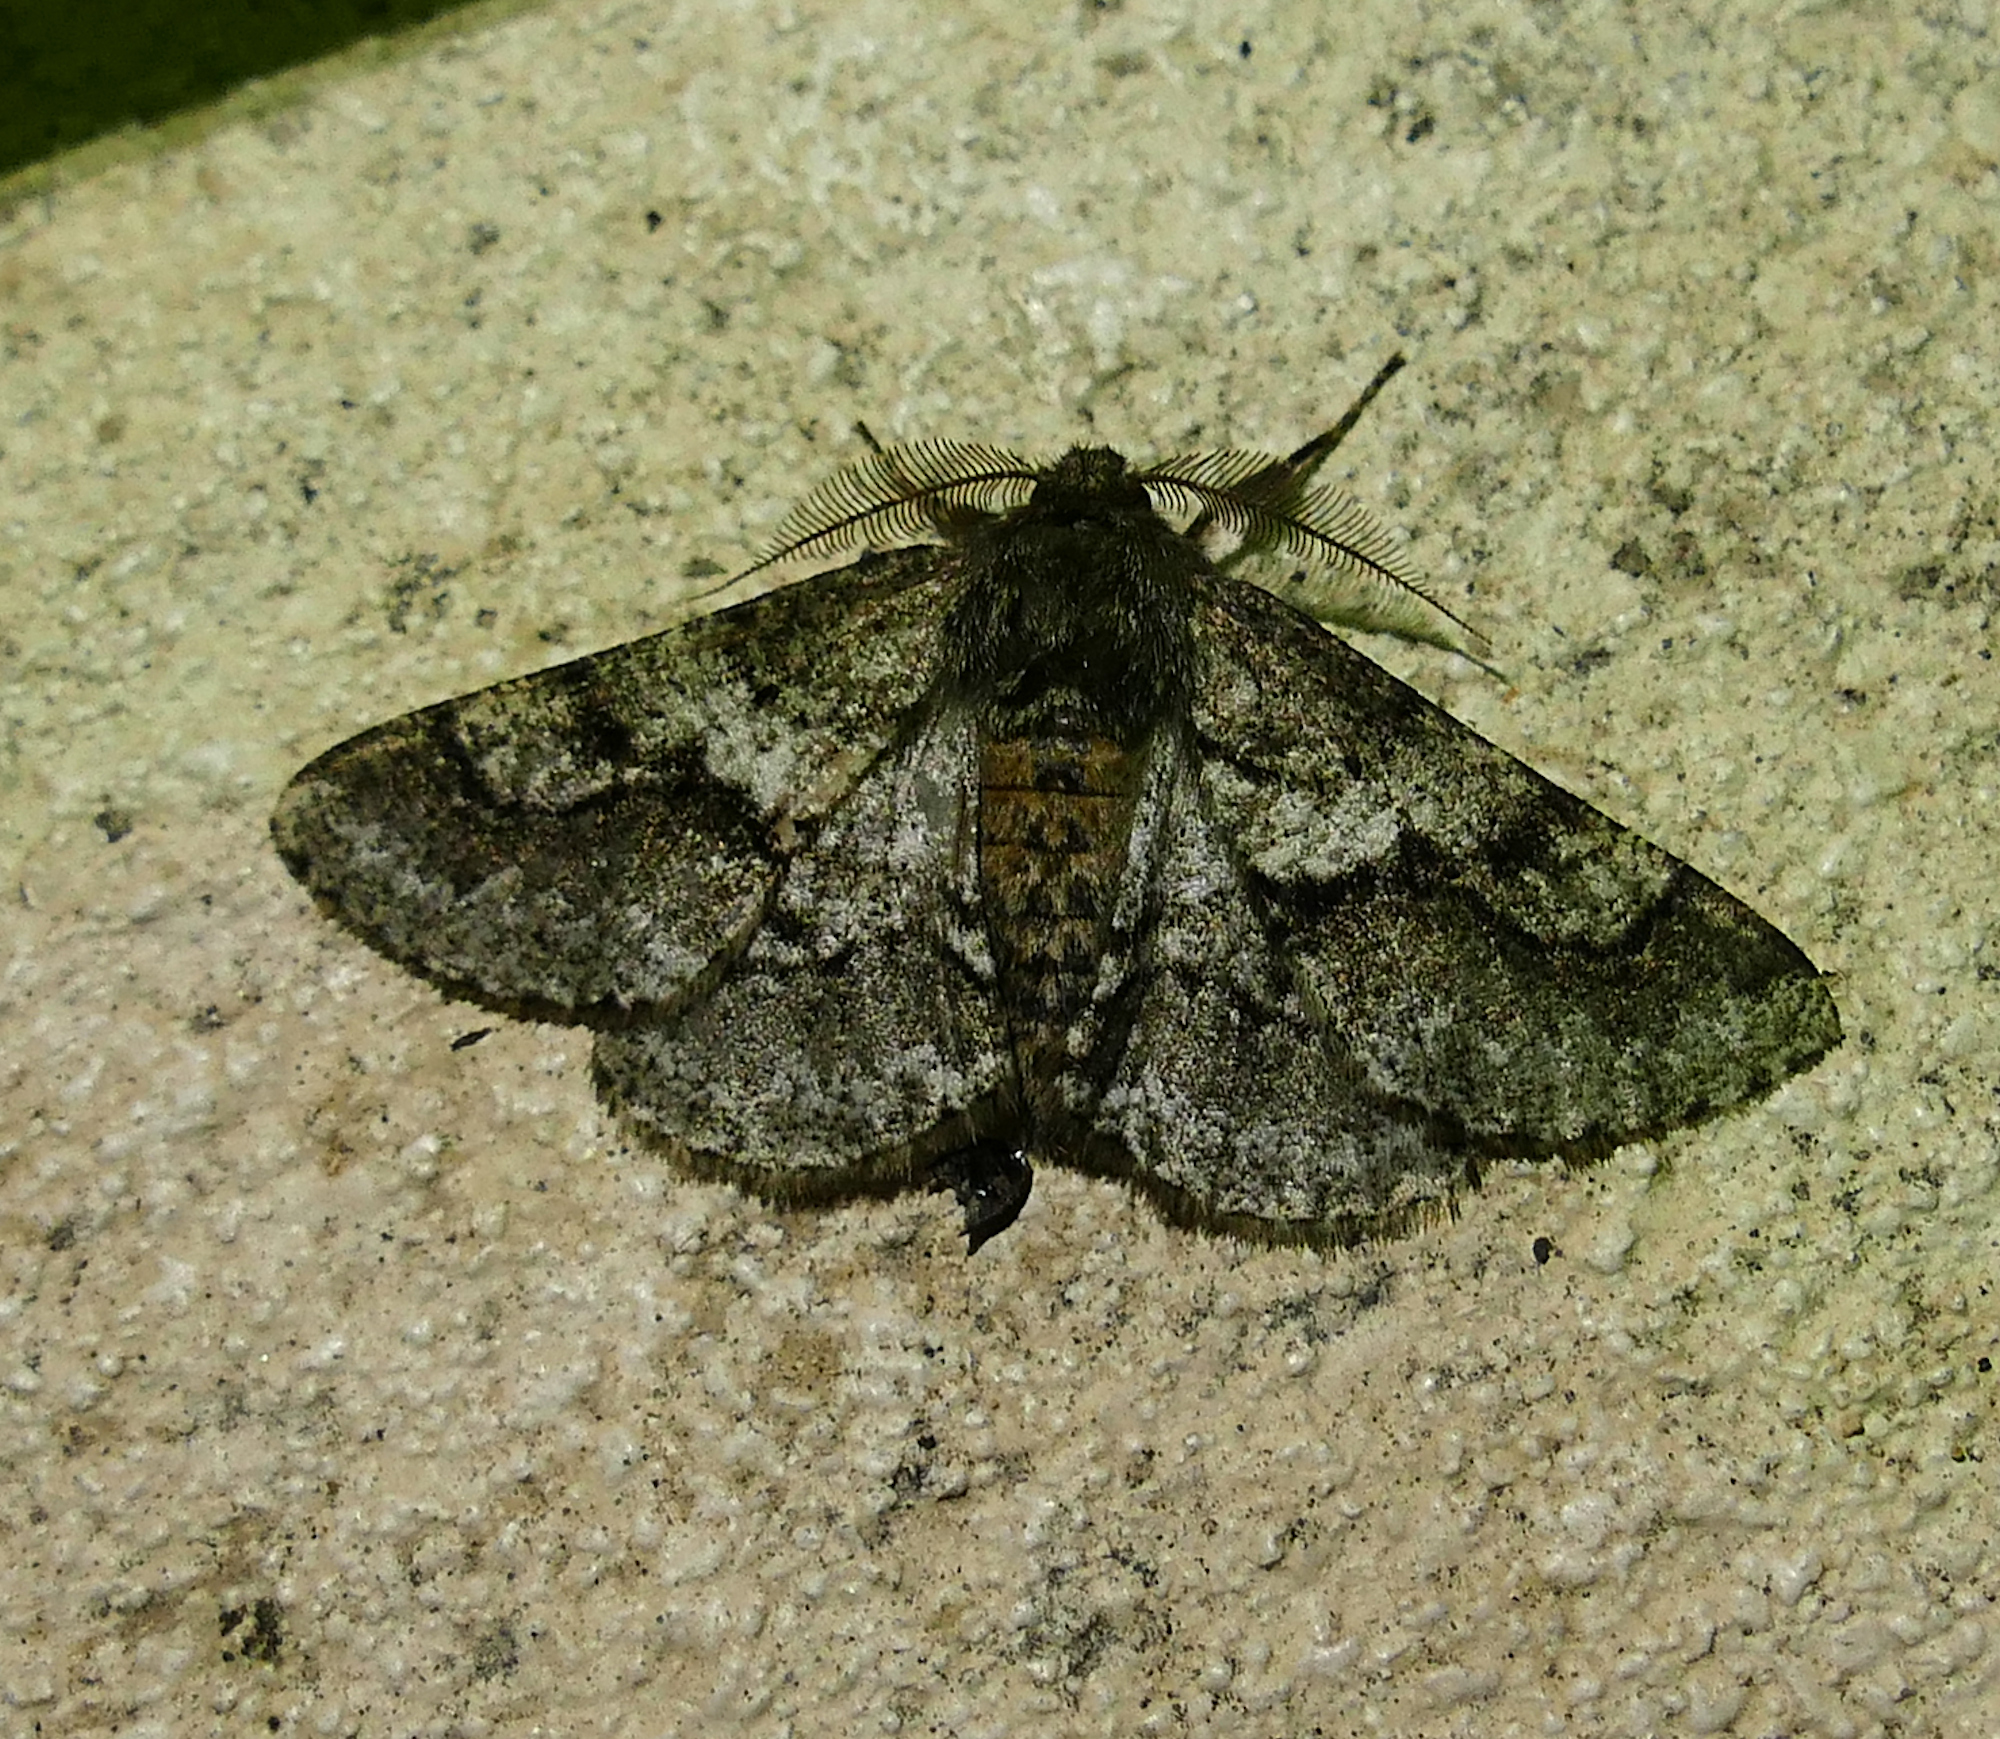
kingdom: Animalia
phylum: Arthropoda
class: Insecta
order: Lepidoptera
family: Geometridae
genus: Lycia
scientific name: Lycia ypsilon
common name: Wooly gray
